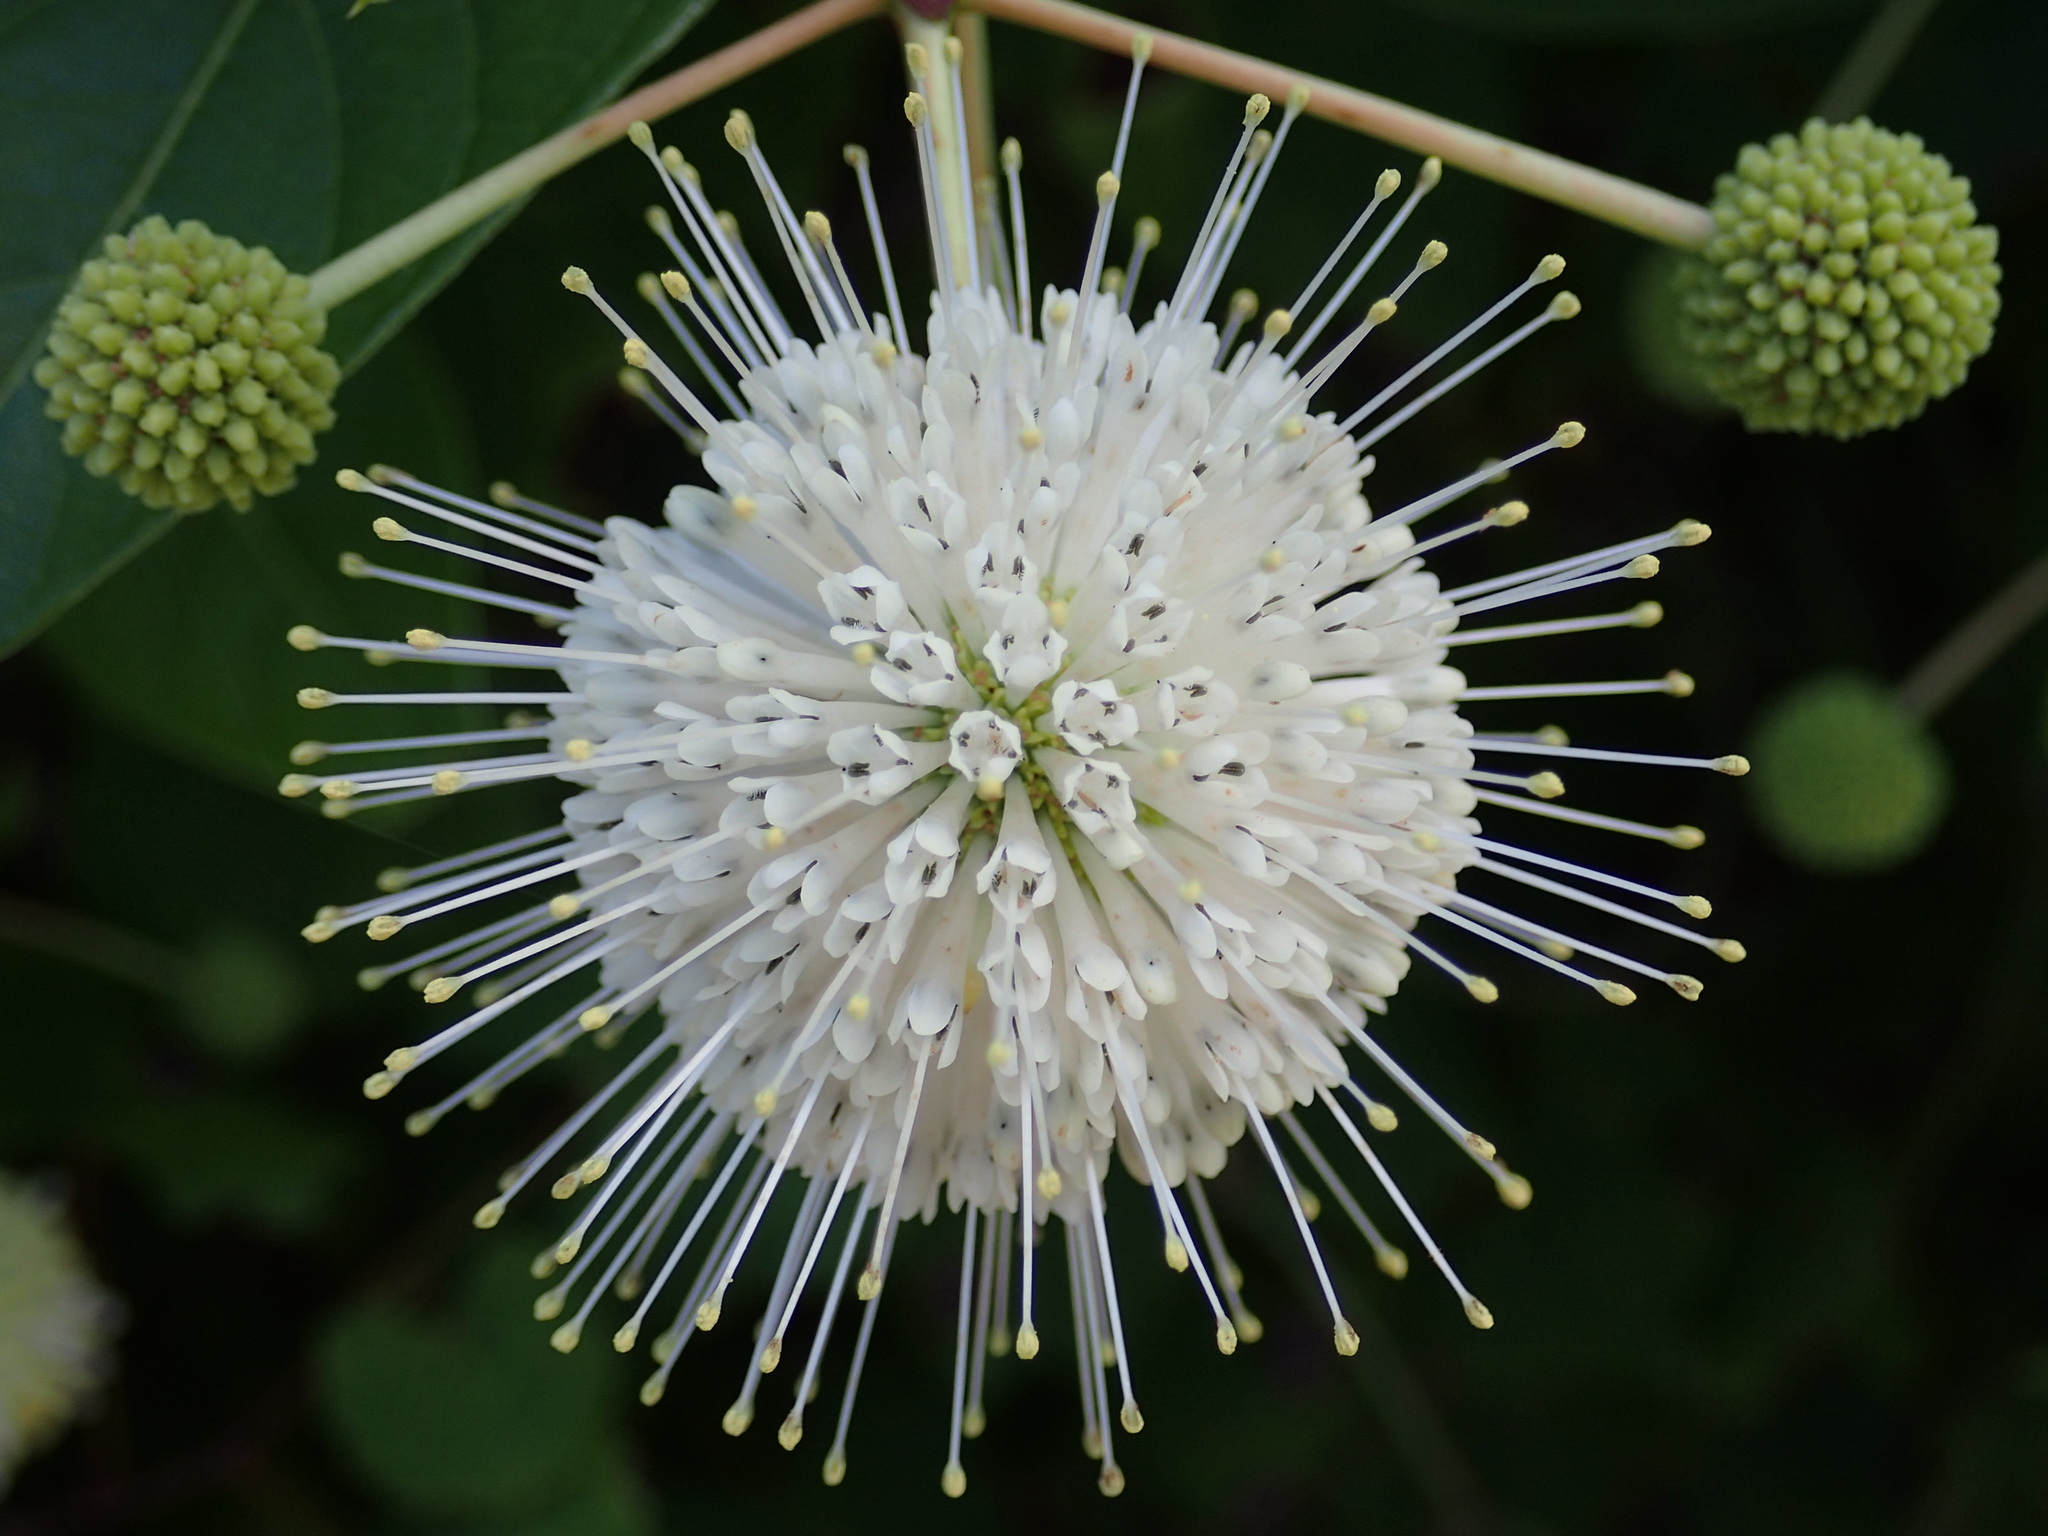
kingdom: Plantae
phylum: Tracheophyta
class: Magnoliopsida
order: Gentianales
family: Rubiaceae
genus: Cephalanthus
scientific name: Cephalanthus occidentalis
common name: Button-willow
